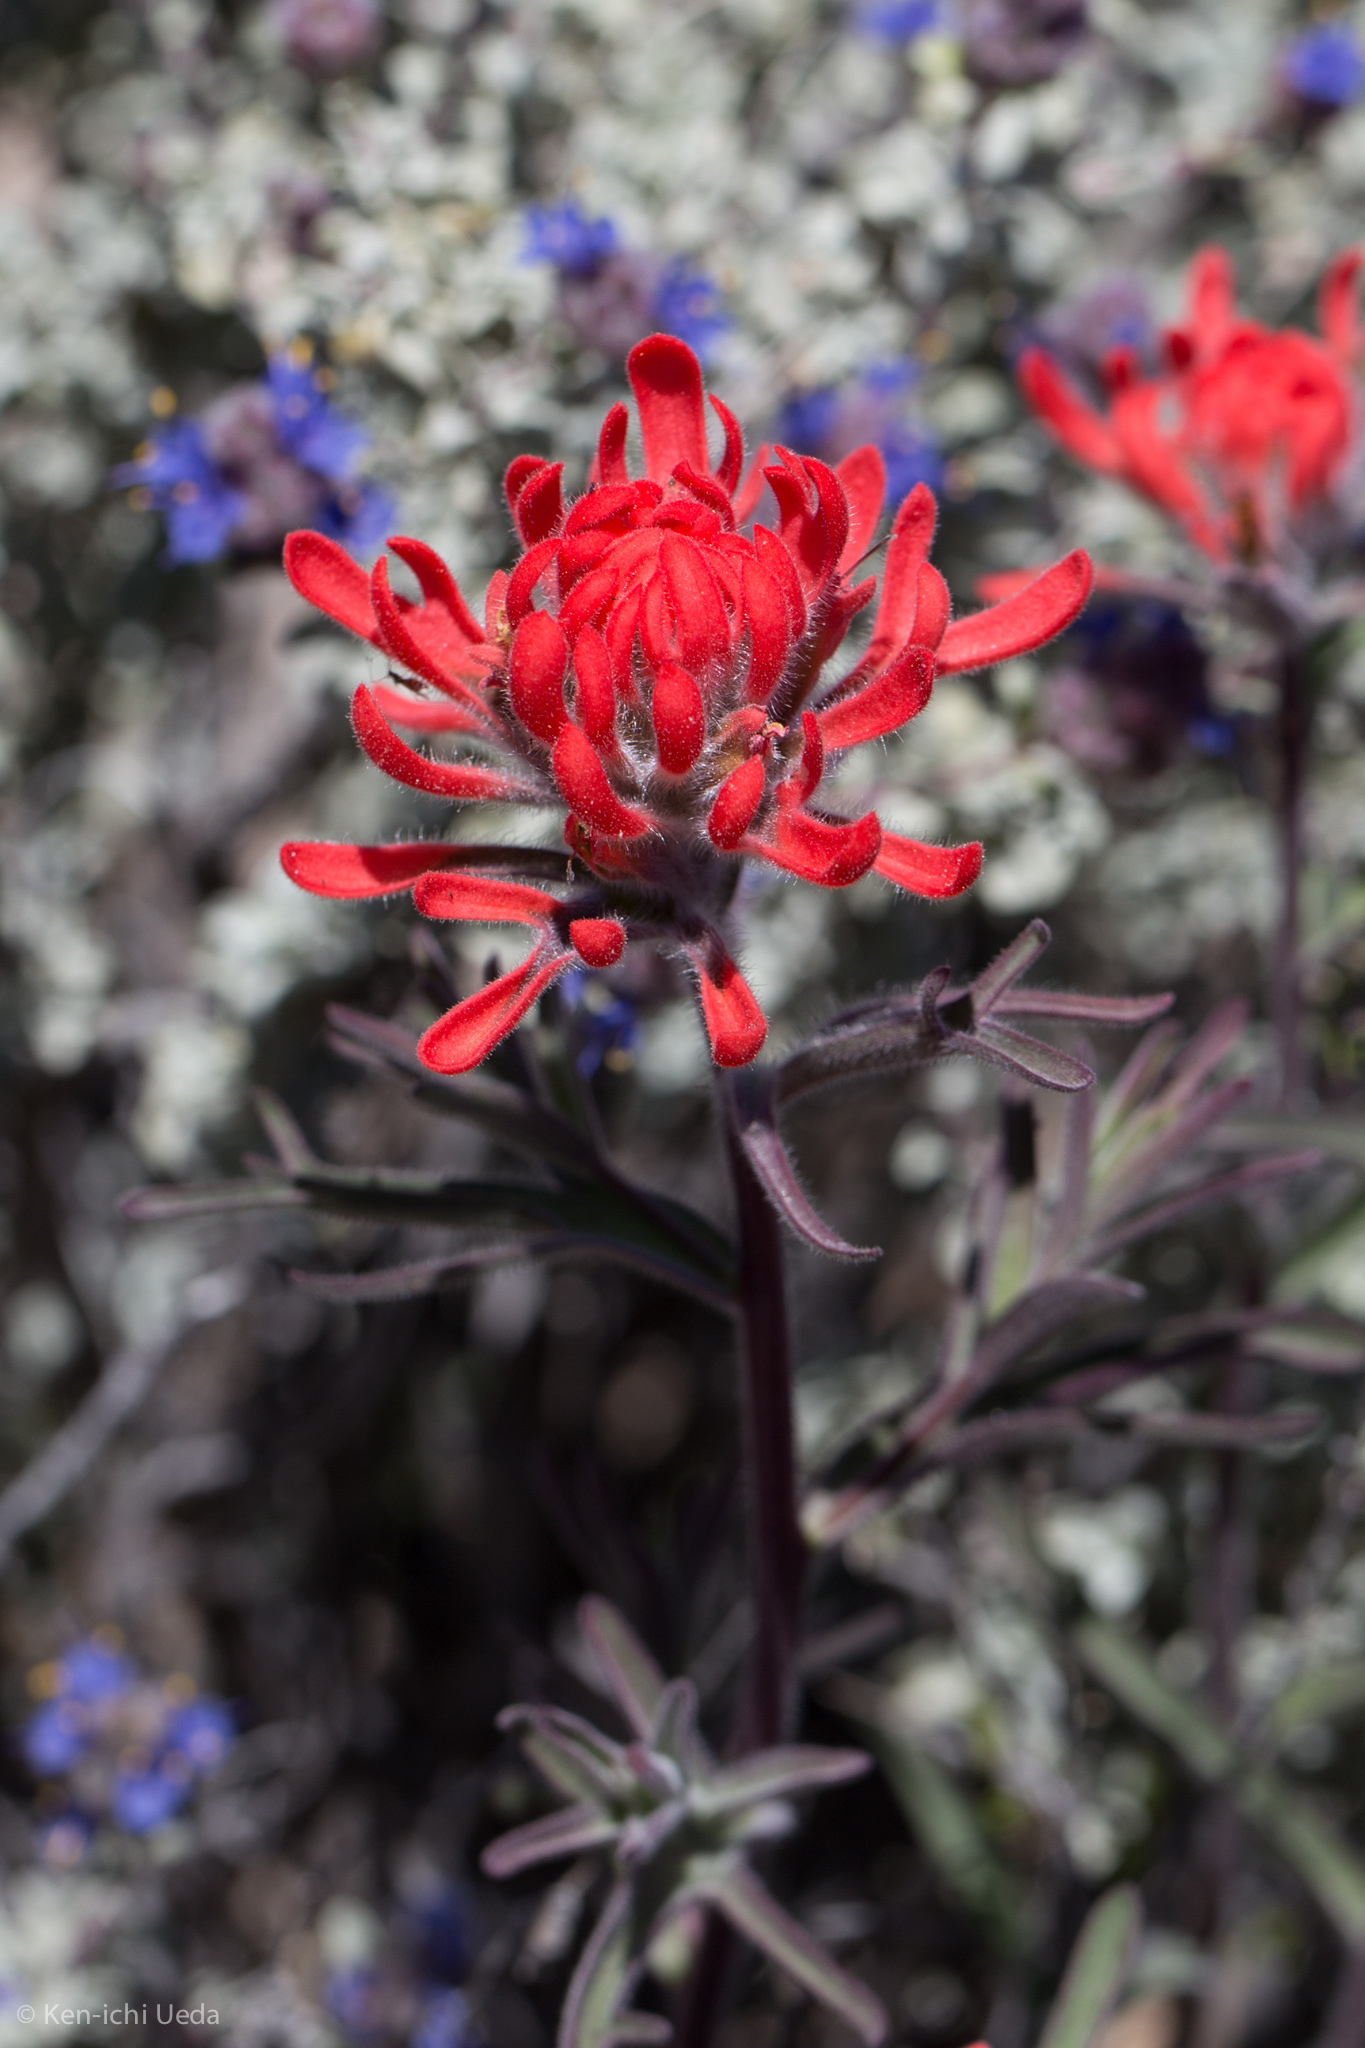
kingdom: Plantae
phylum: Tracheophyta
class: Magnoliopsida
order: Lamiales
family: Orobanchaceae
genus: Castilleja
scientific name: Castilleja chromosa
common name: Desert paintbrush
